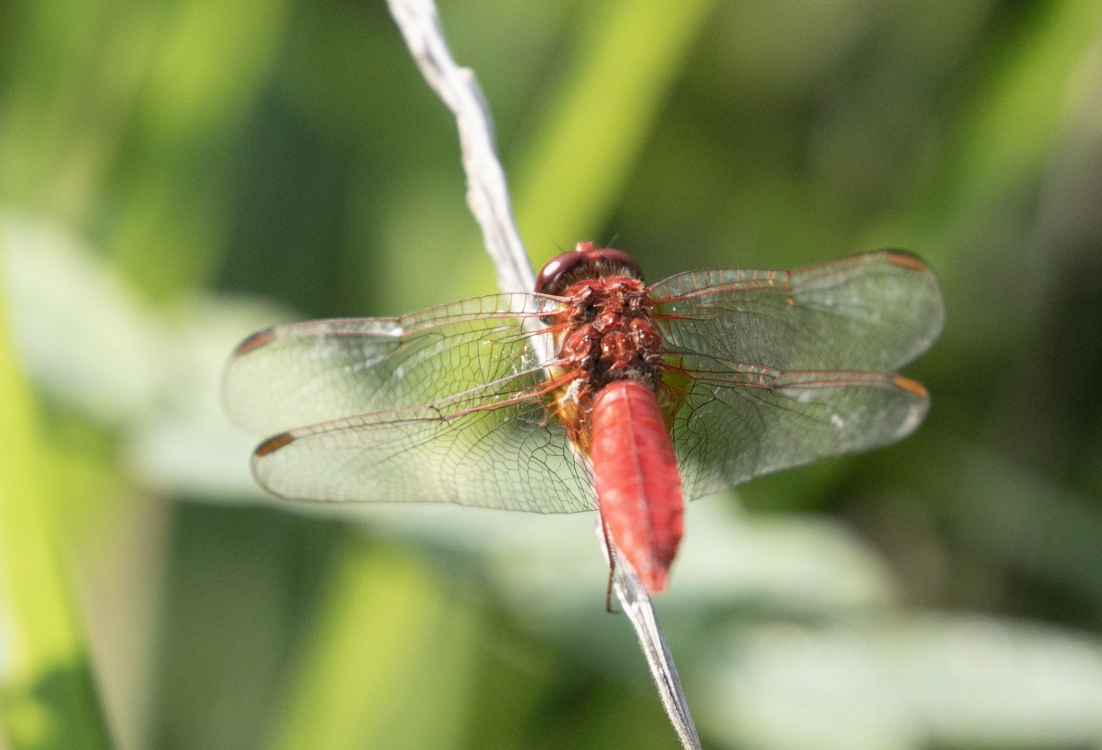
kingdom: Animalia
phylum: Arthropoda
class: Insecta
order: Odonata
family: Libellulidae
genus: Crocothemis
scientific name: Crocothemis erythraea
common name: Scarlet dragonfly
